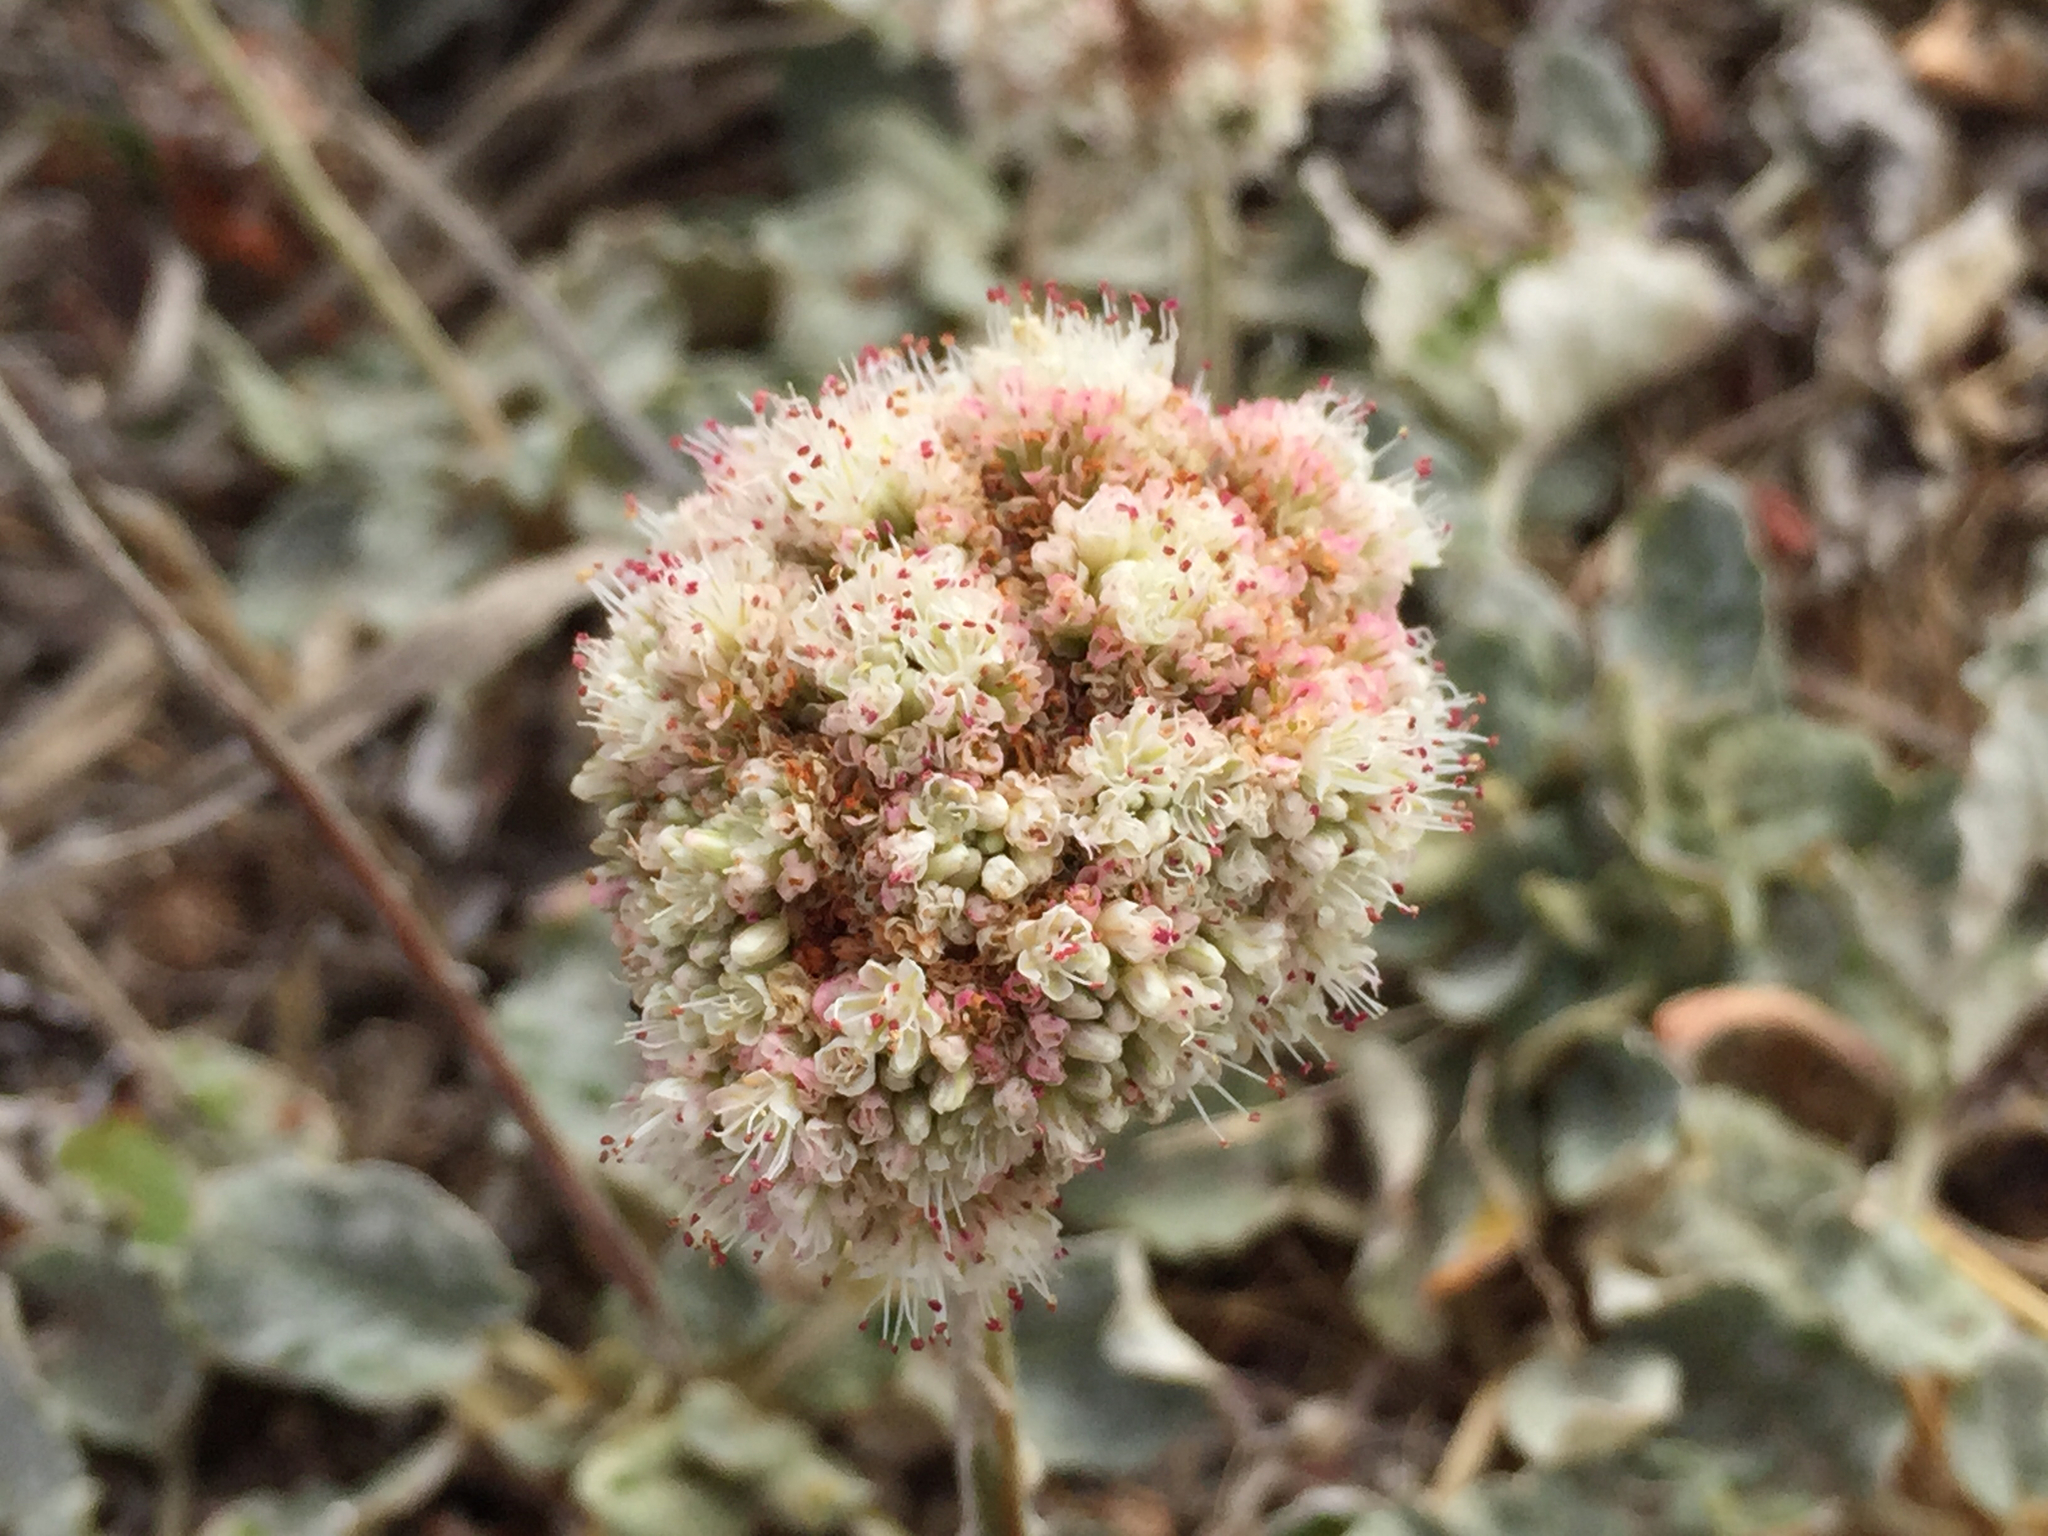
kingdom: Plantae
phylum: Tracheophyta
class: Magnoliopsida
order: Caryophyllales
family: Polygonaceae
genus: Eriogonum
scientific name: Eriogonum latifolium
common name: Seaside wild buckwheat
